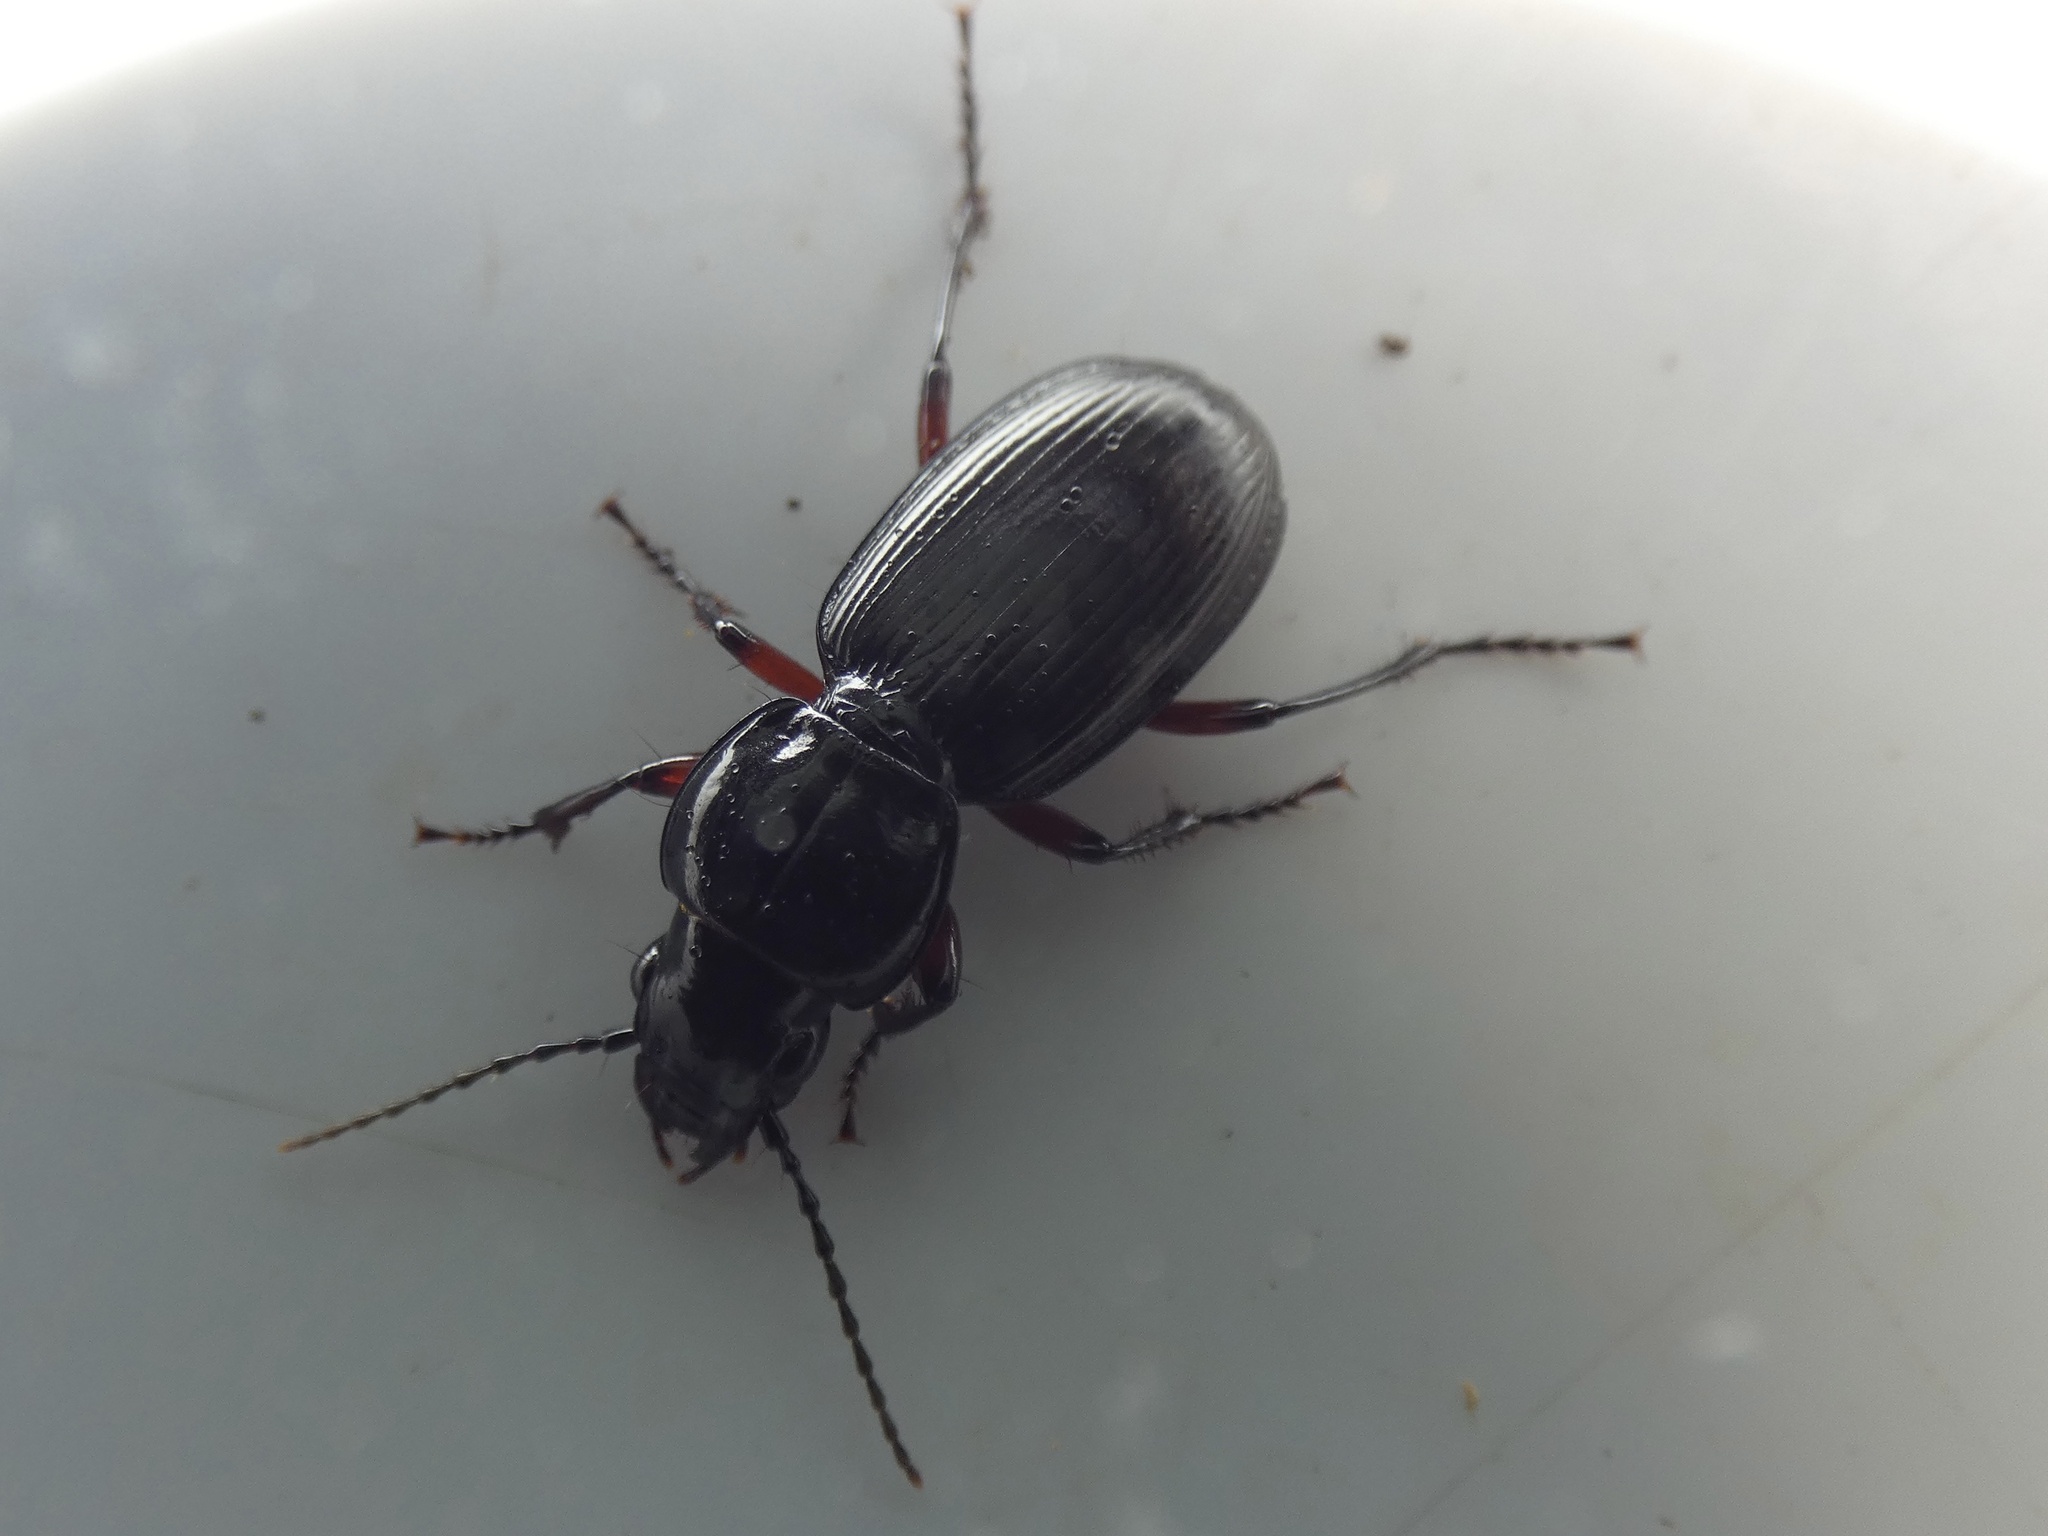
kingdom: Animalia
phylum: Arthropoda
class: Insecta
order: Coleoptera
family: Carabidae
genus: Pterostichus
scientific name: Pterostichus madidus
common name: Black clock
